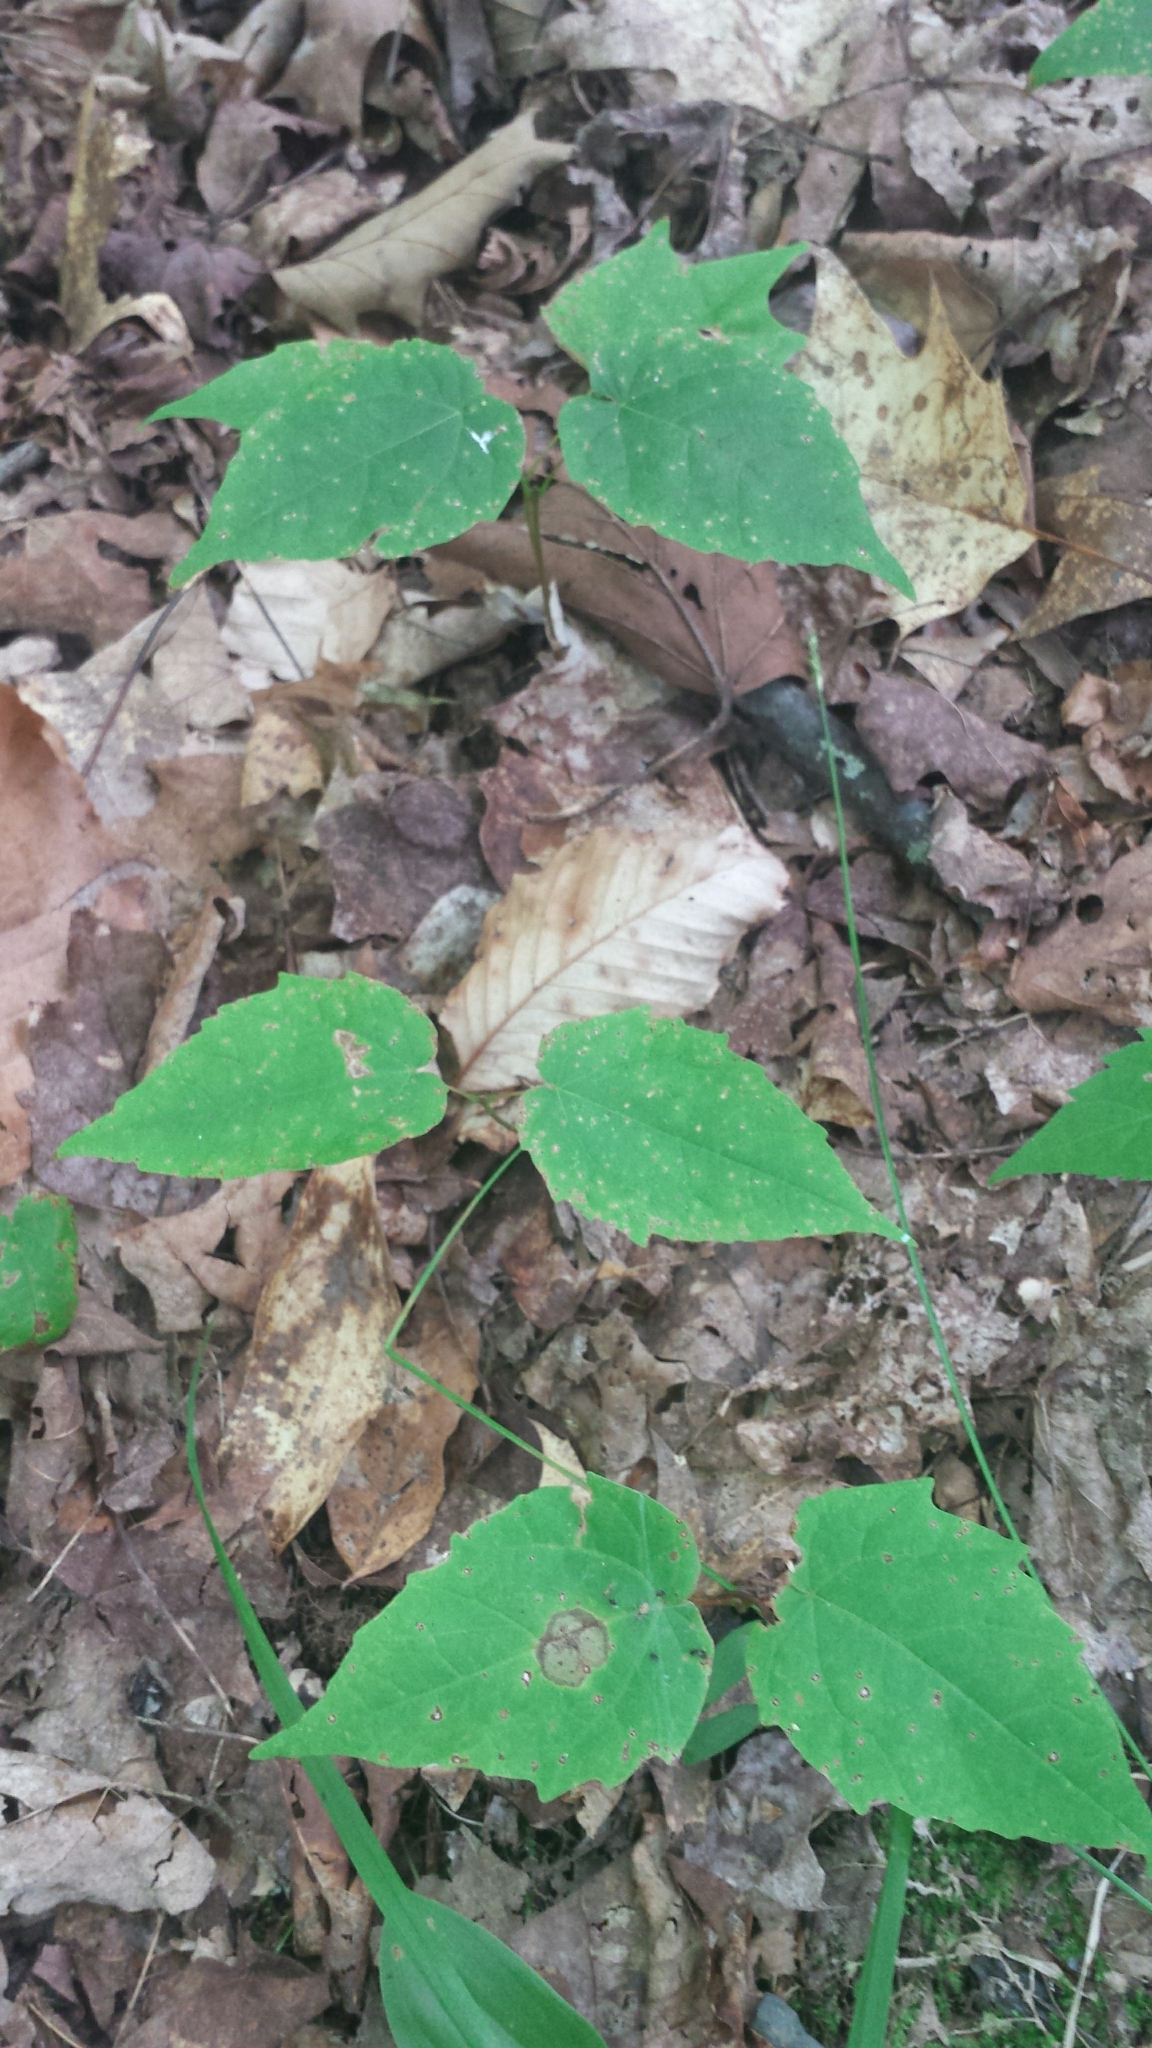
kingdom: Plantae
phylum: Tracheophyta
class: Magnoliopsida
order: Sapindales
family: Sapindaceae
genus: Acer
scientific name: Acer saccharum
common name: Sugar maple
